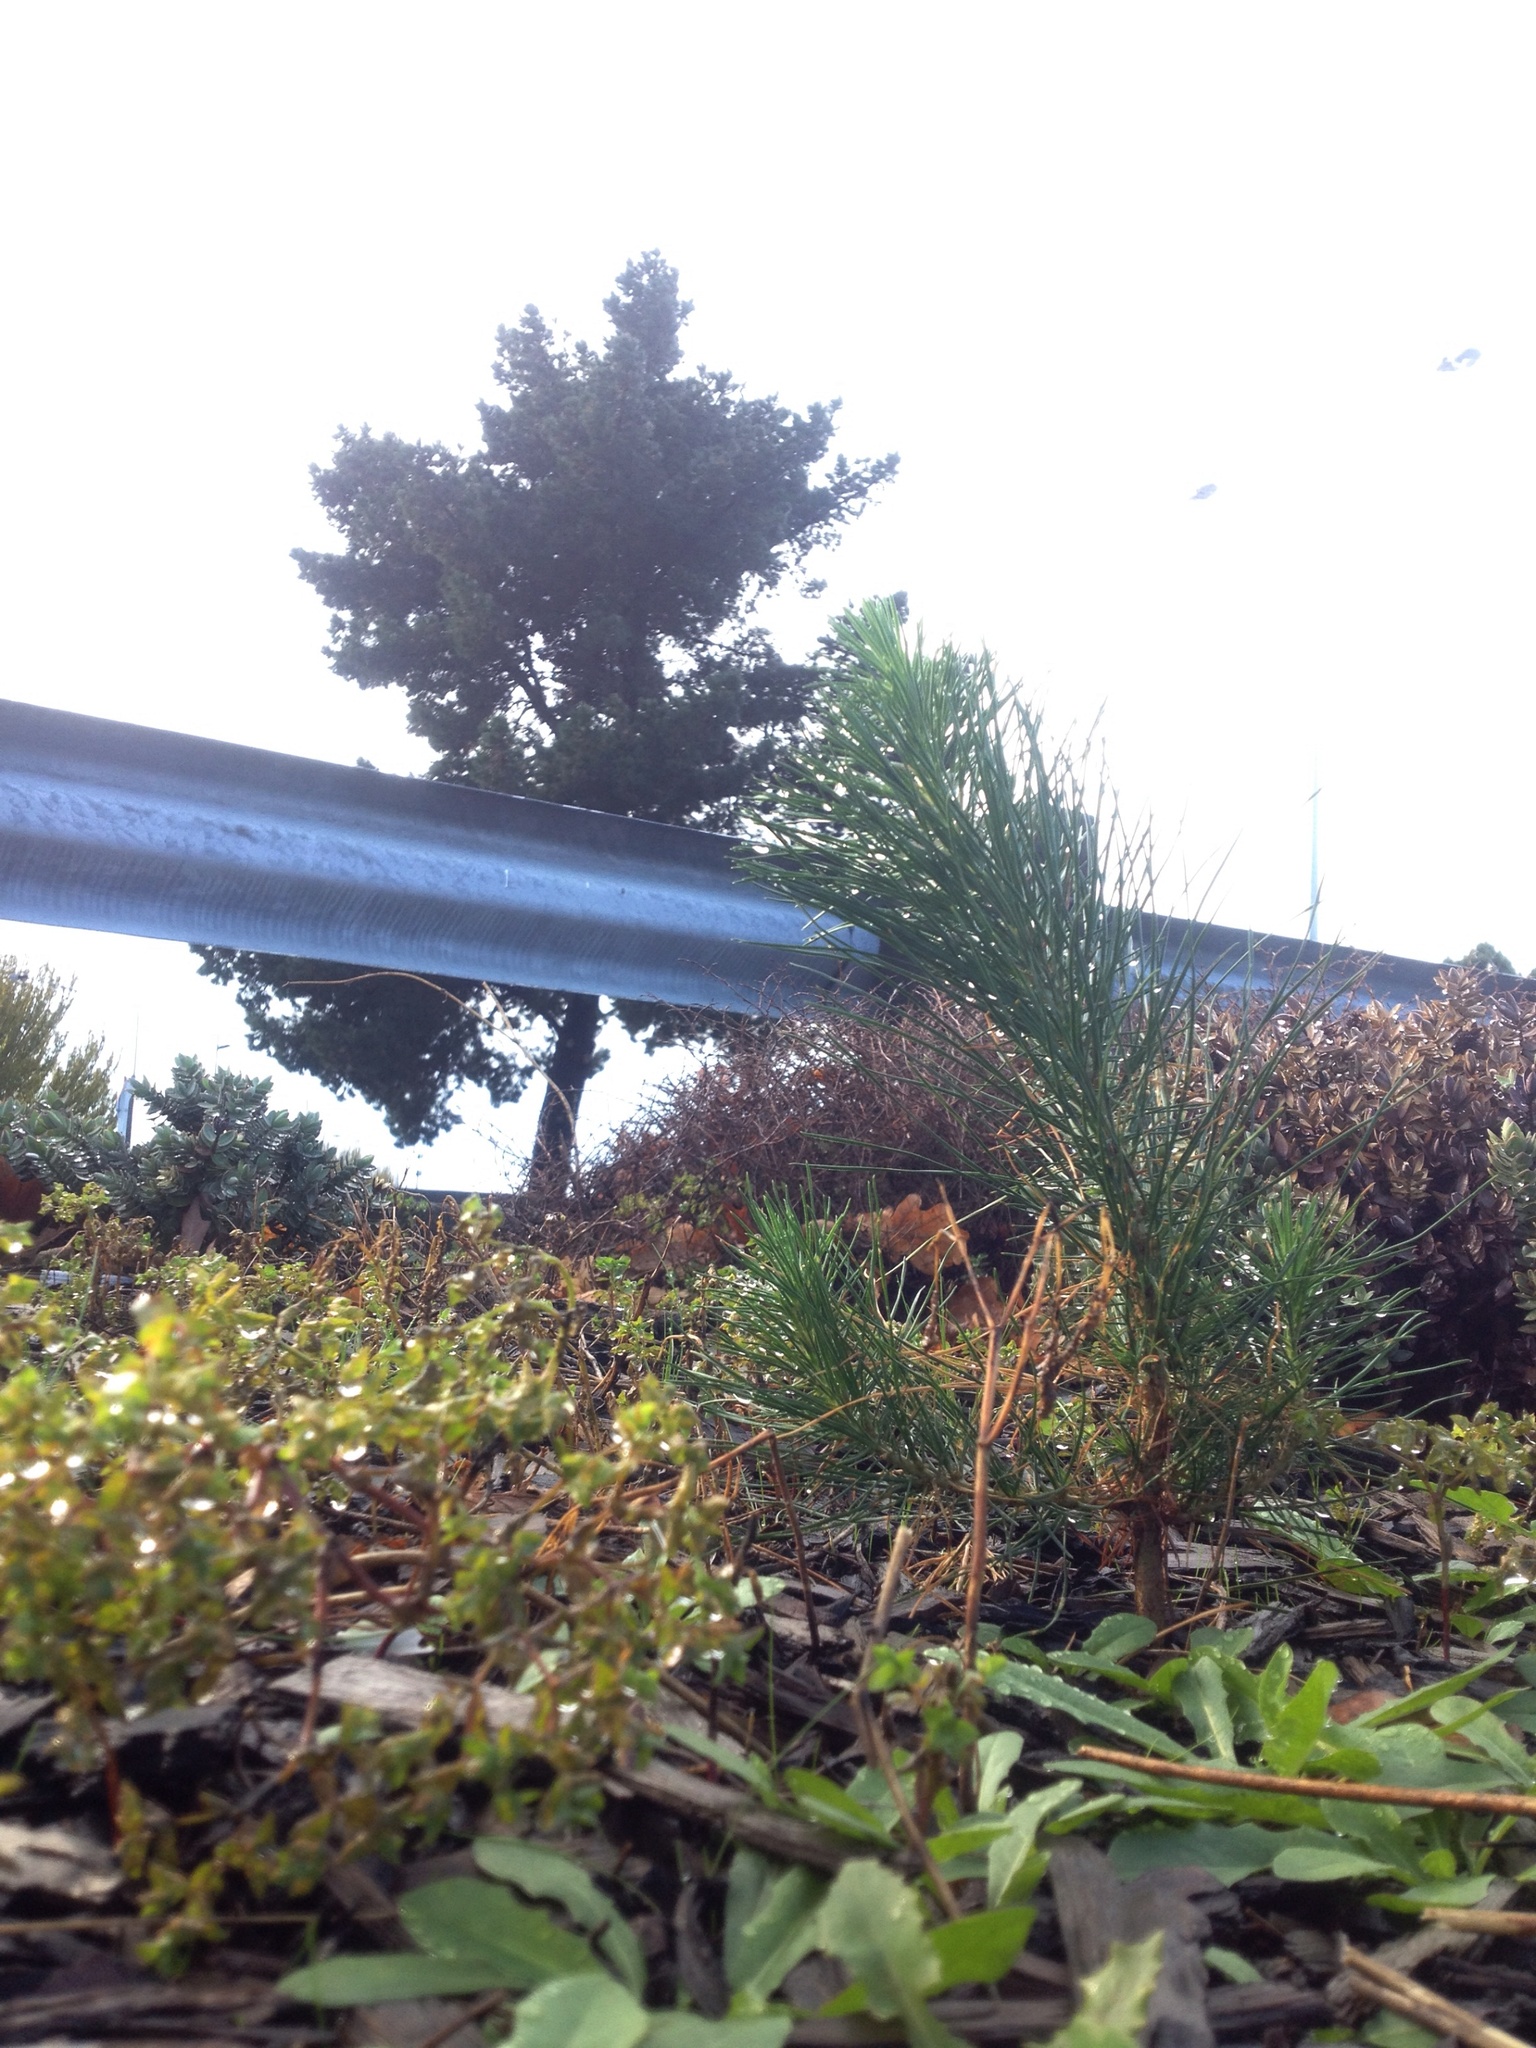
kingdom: Plantae
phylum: Tracheophyta
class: Pinopsida
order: Pinales
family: Pinaceae
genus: Pinus
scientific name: Pinus radiata
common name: Monterey pine
